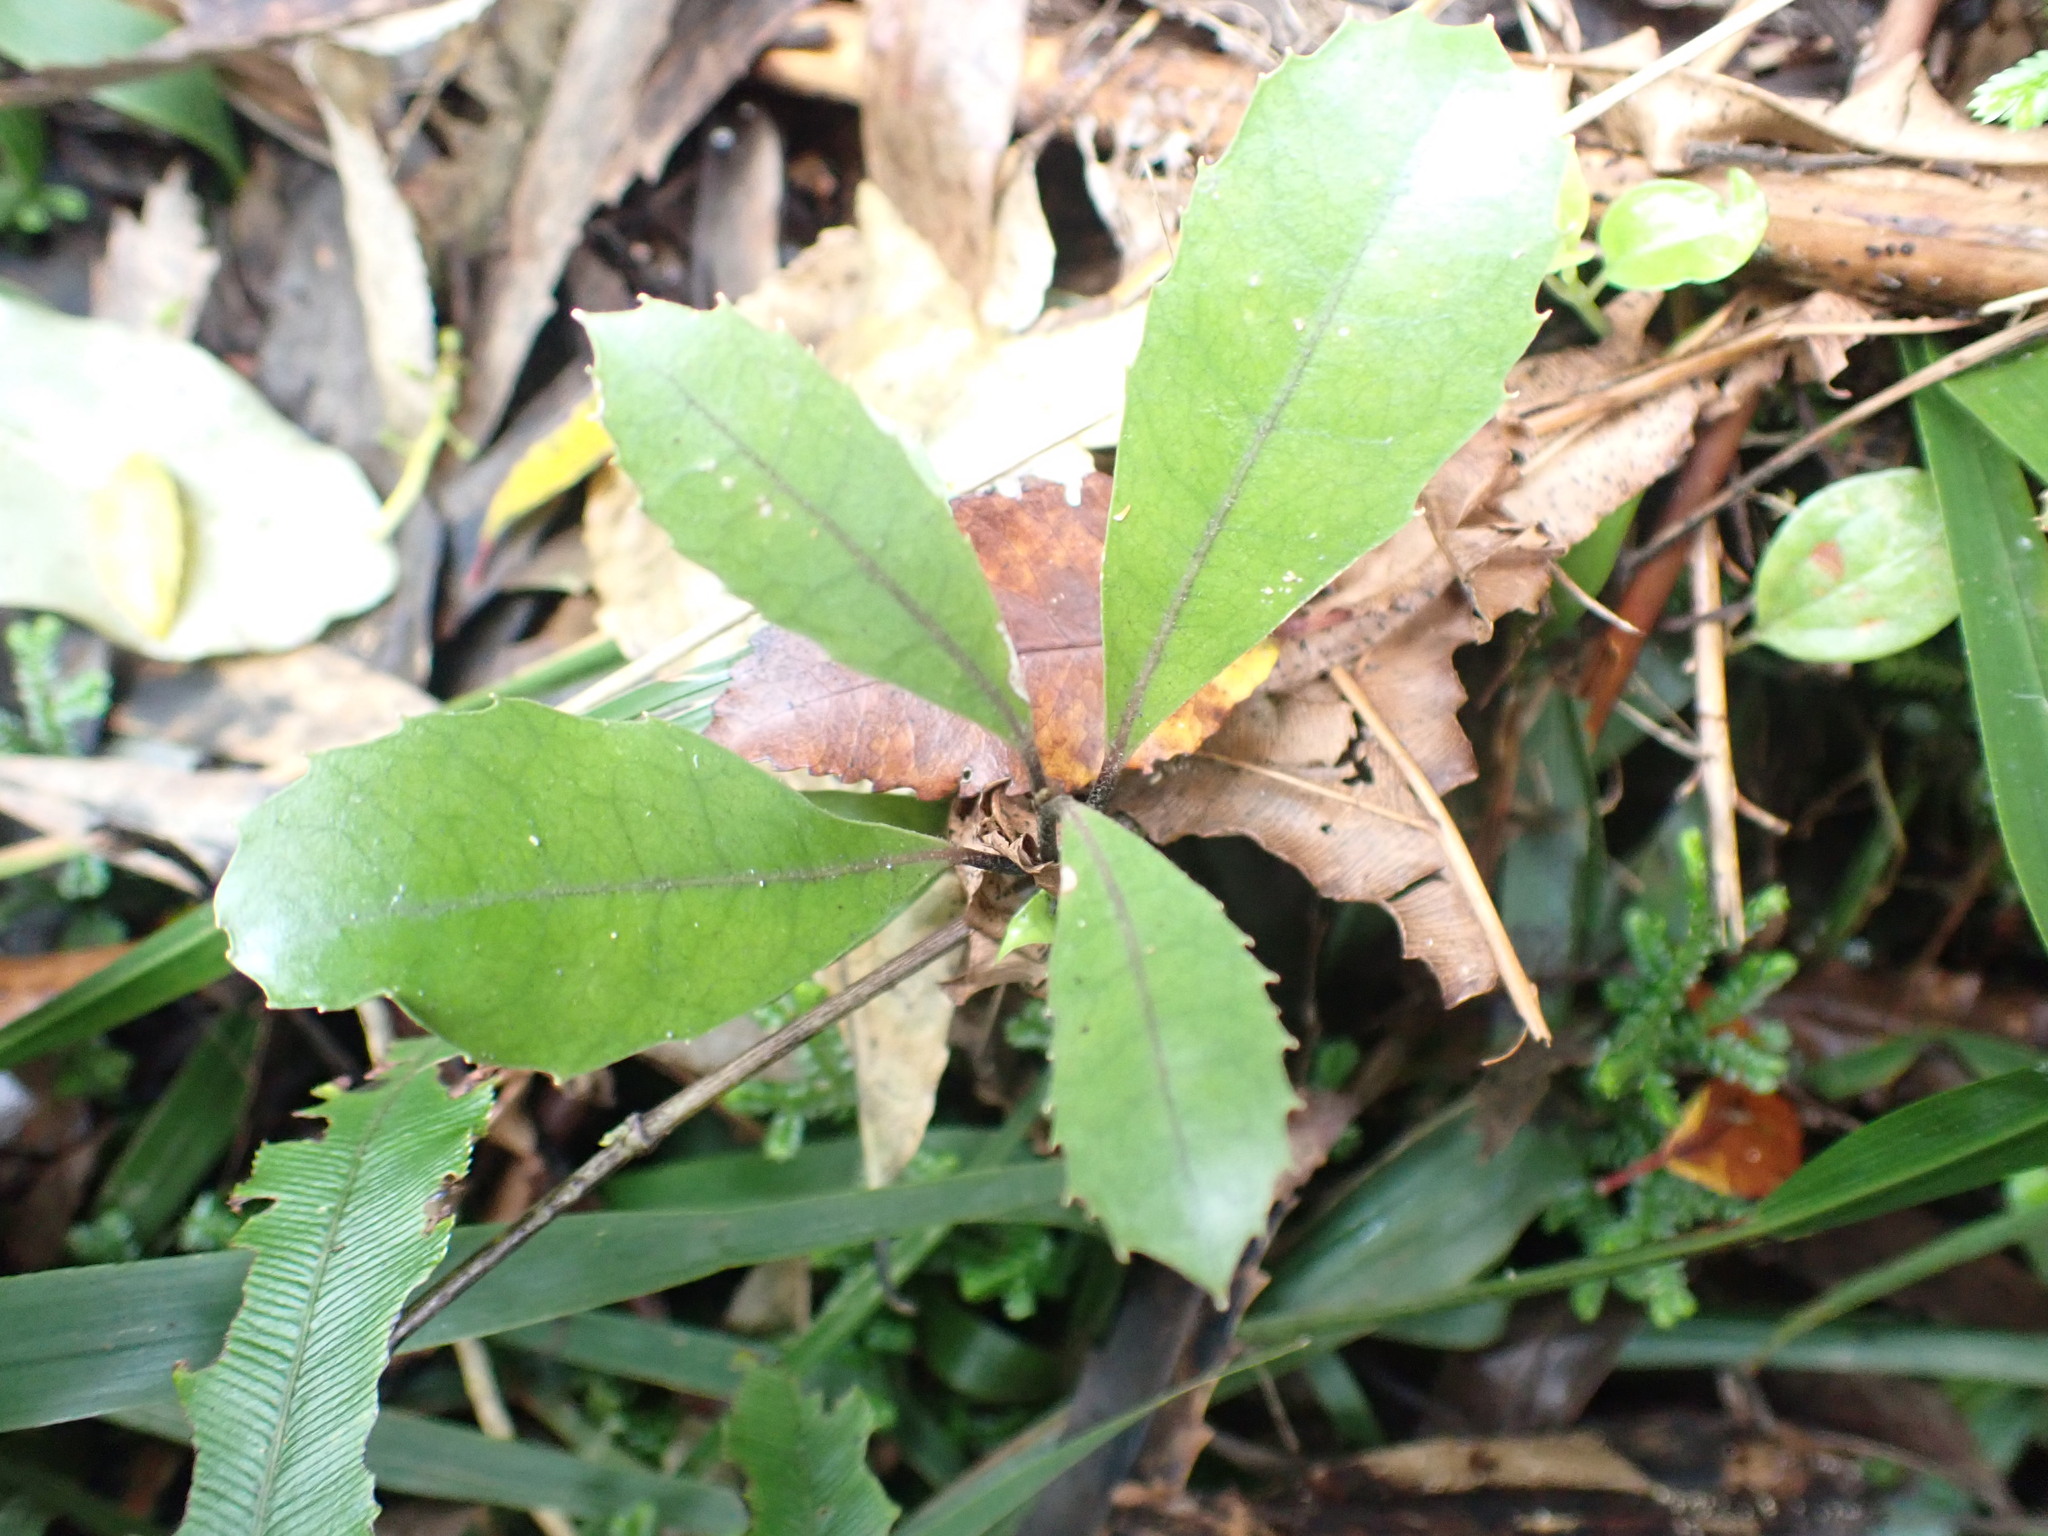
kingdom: Plantae
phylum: Tracheophyta
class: Magnoliopsida
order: Laurales
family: Monimiaceae
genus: Hedycarya
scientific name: Hedycarya arborea
